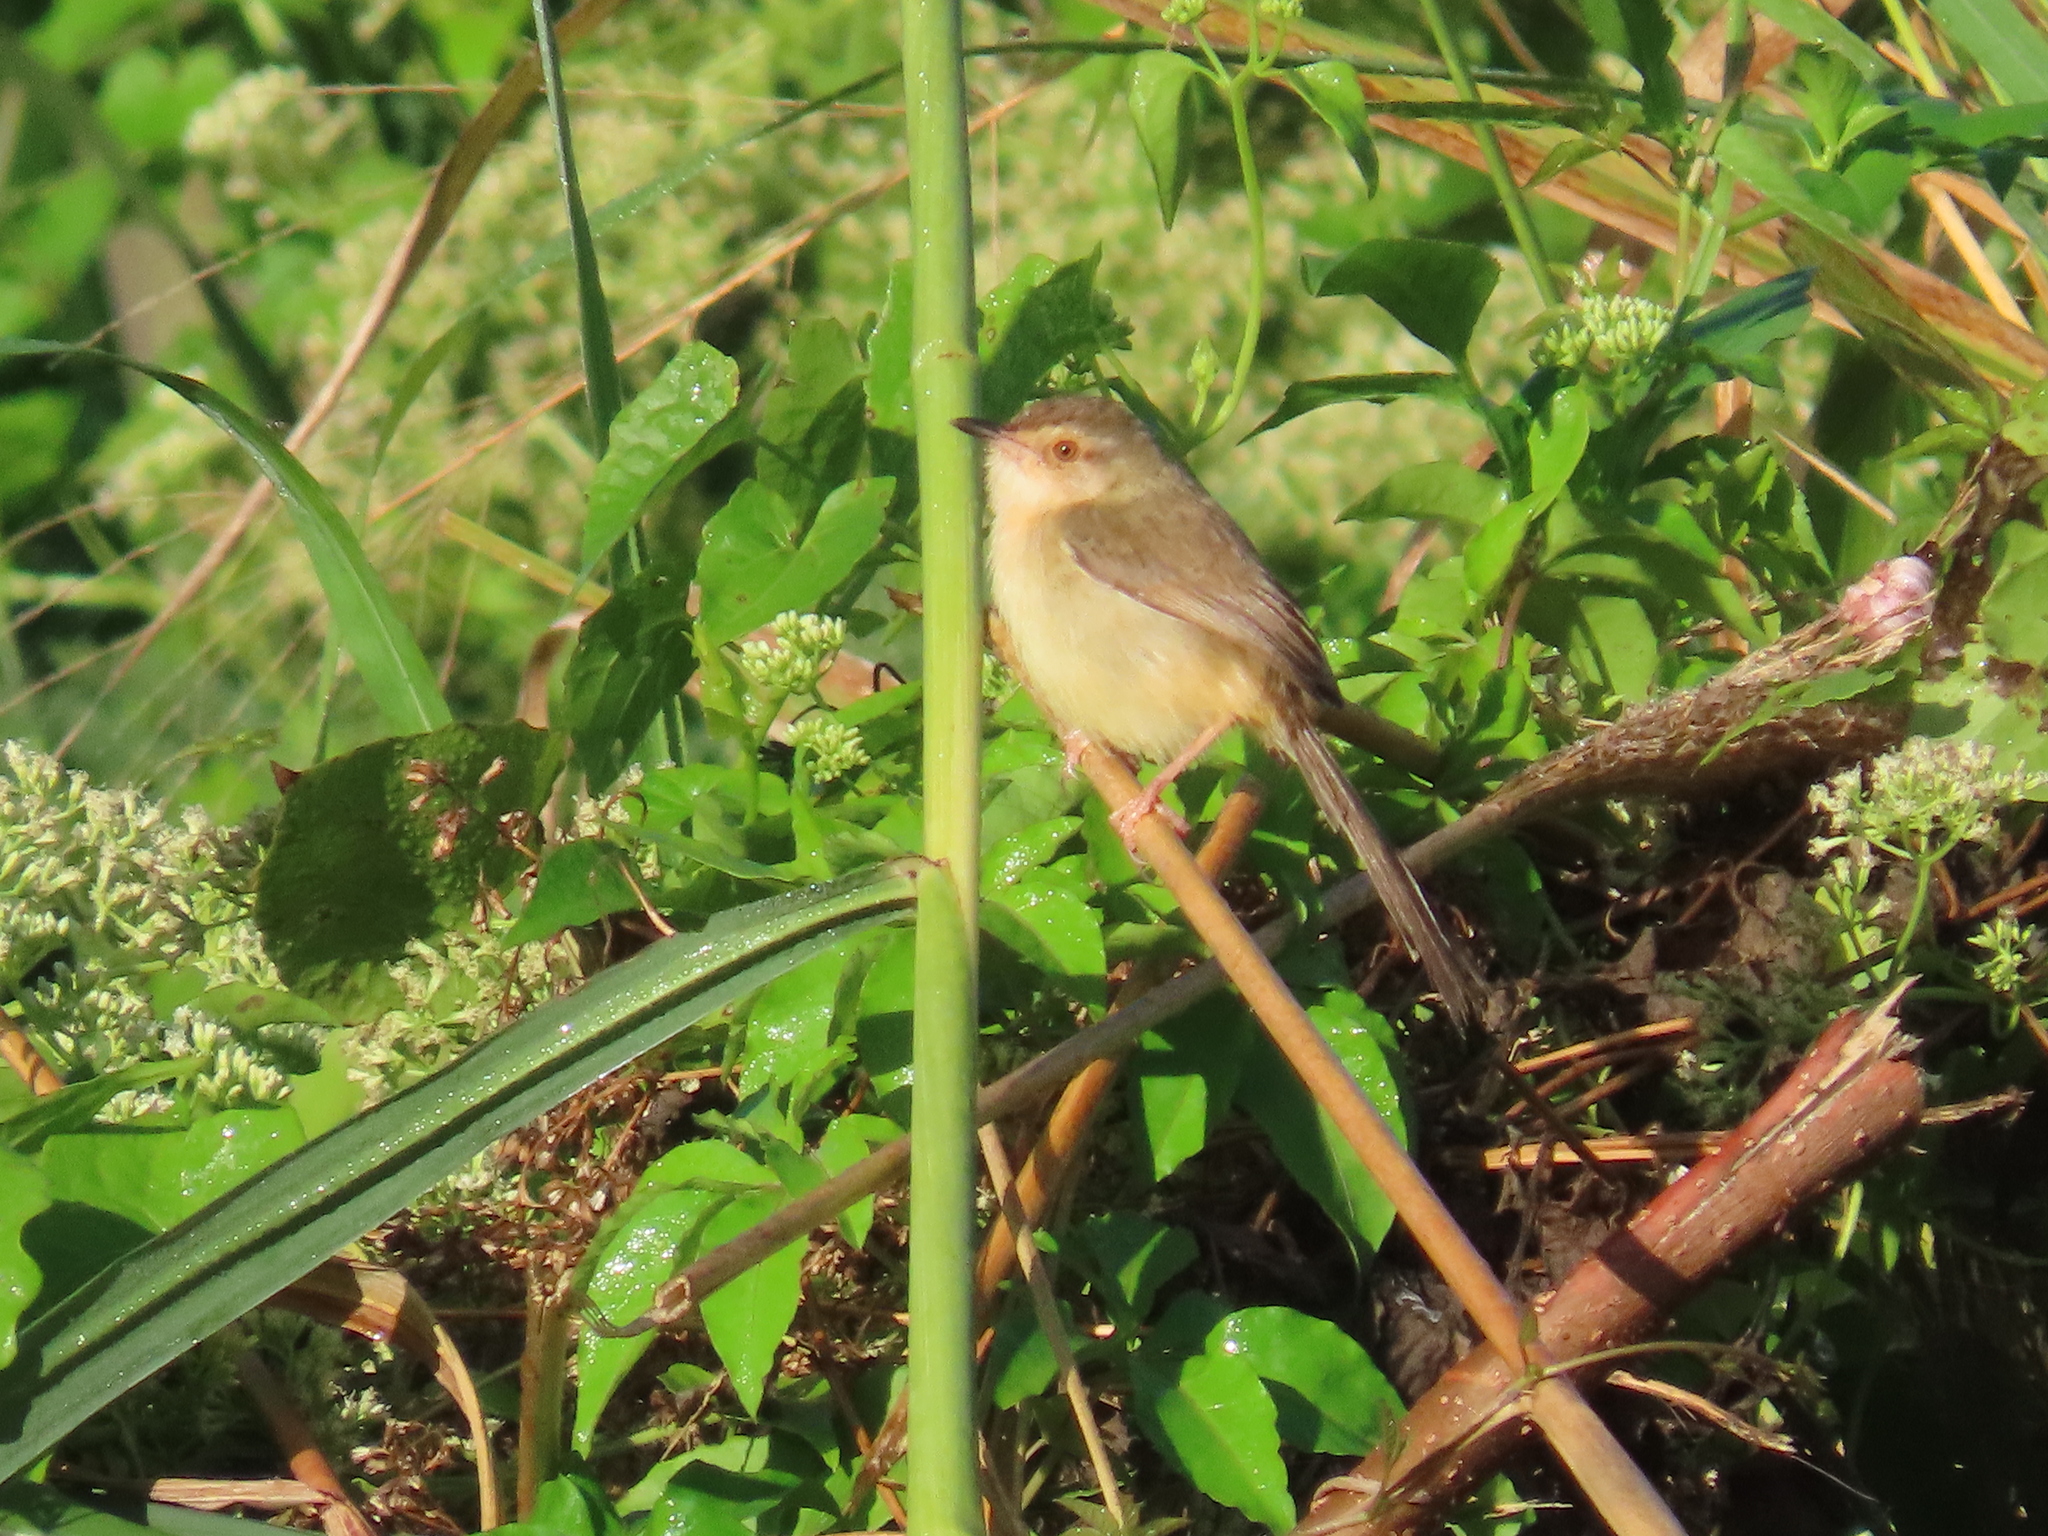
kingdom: Animalia
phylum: Chordata
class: Aves
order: Passeriformes
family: Cisticolidae
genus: Prinia
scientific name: Prinia inornata
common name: Plain prinia
